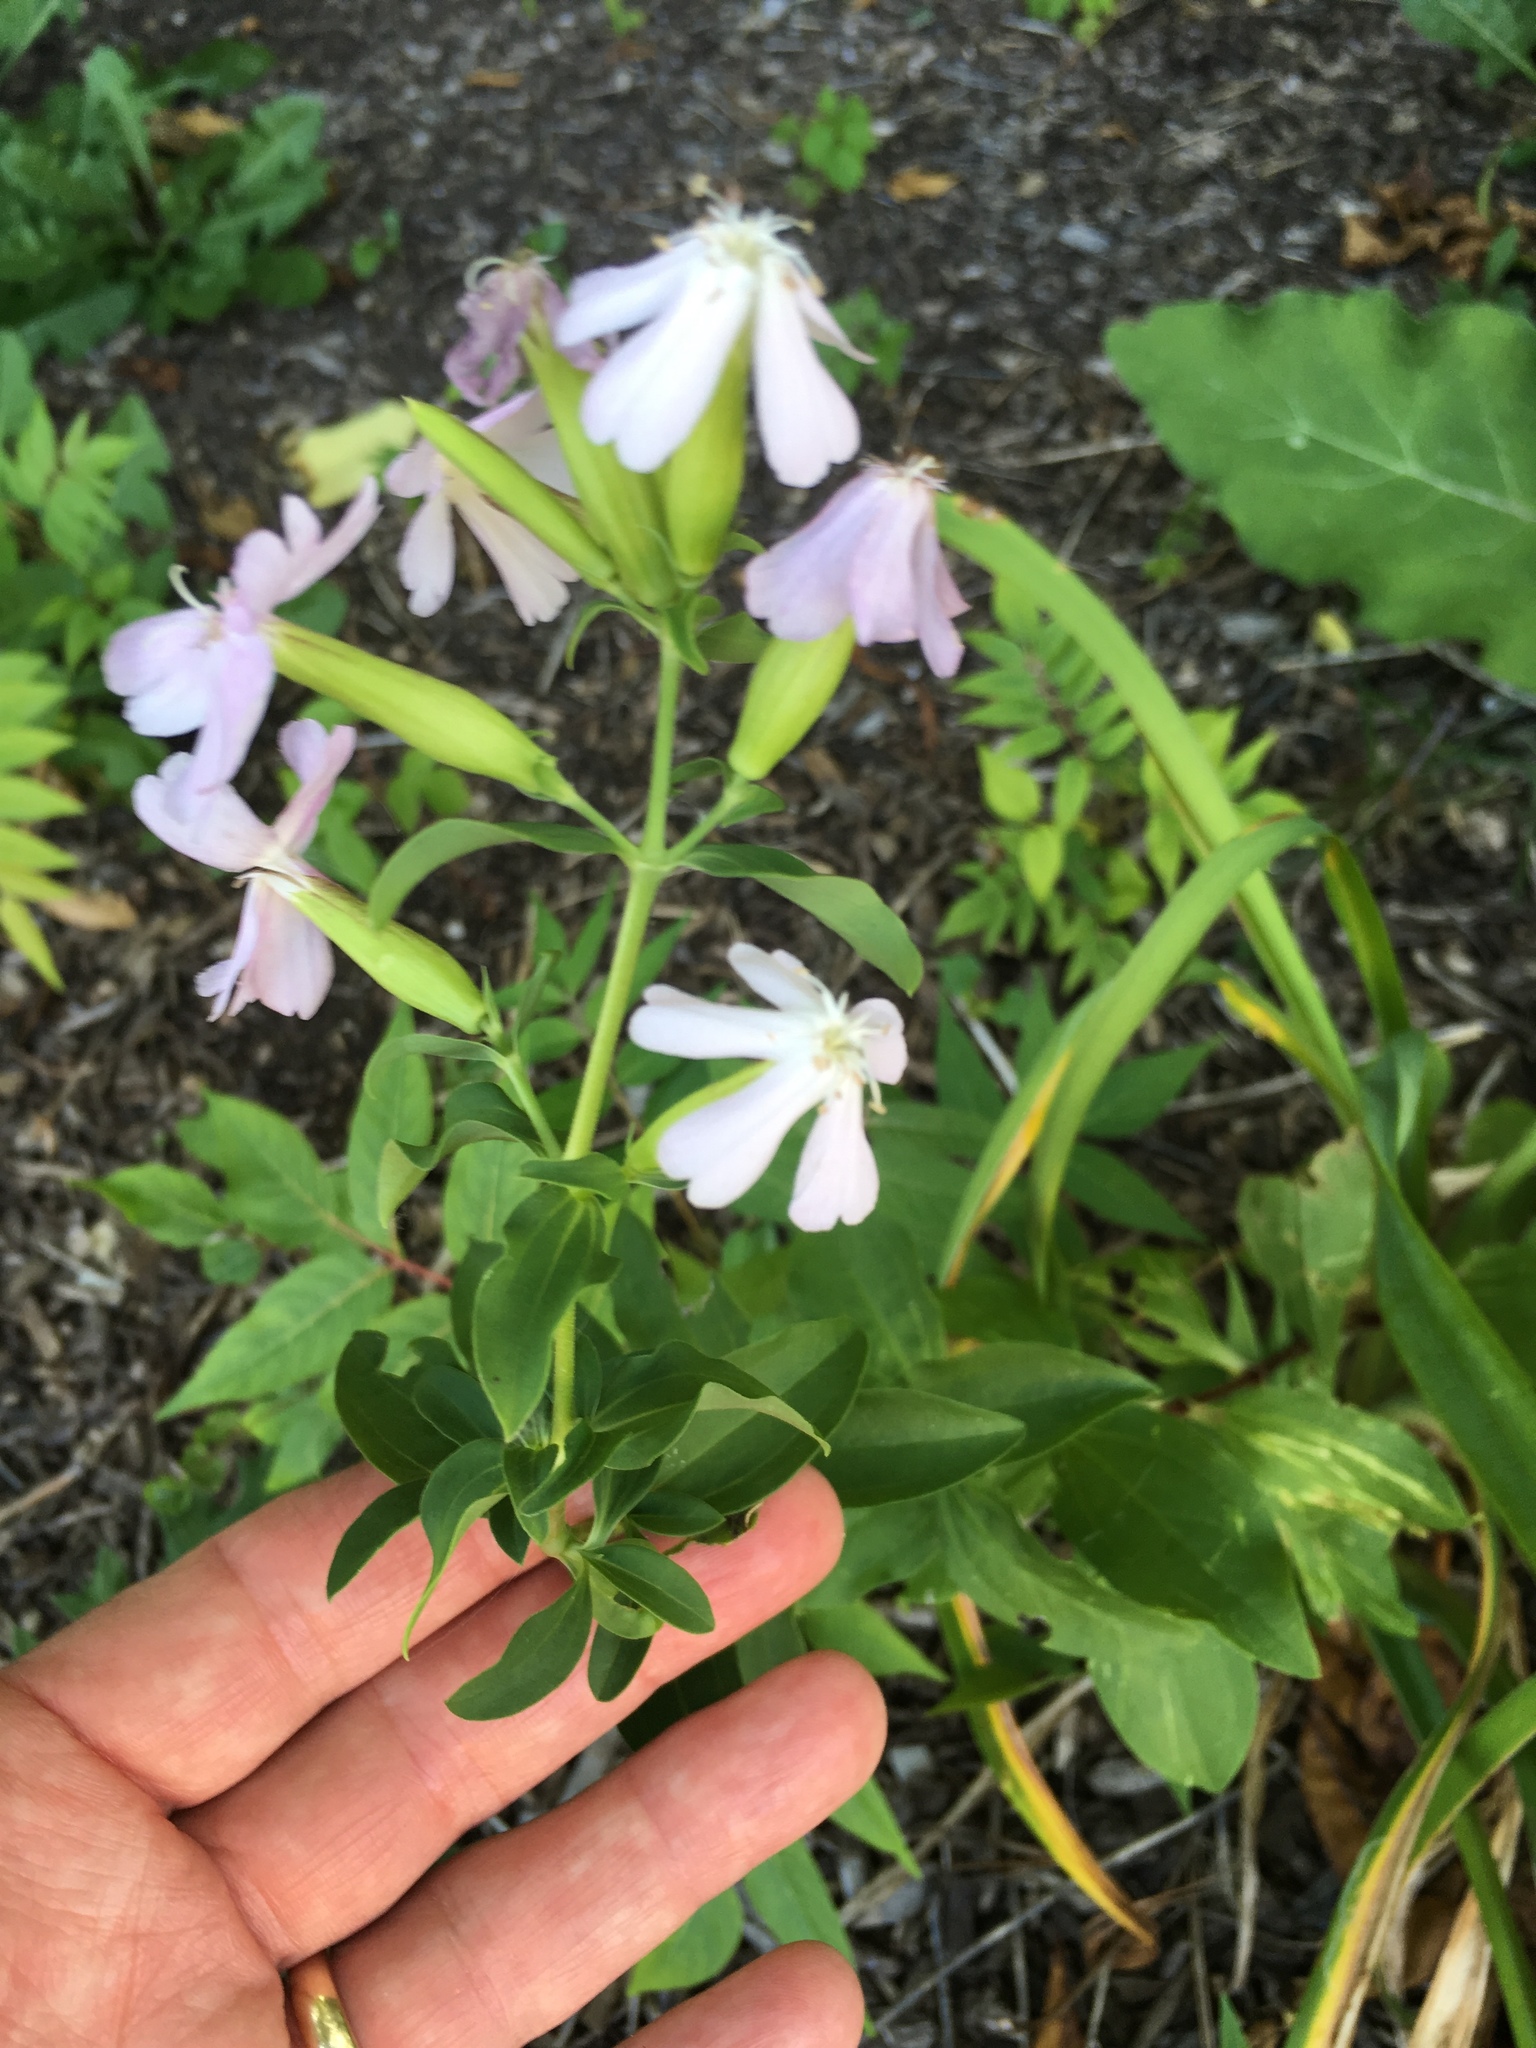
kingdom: Plantae
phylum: Tracheophyta
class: Magnoliopsida
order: Caryophyllales
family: Caryophyllaceae
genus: Saponaria
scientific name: Saponaria officinalis
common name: Soapwort
